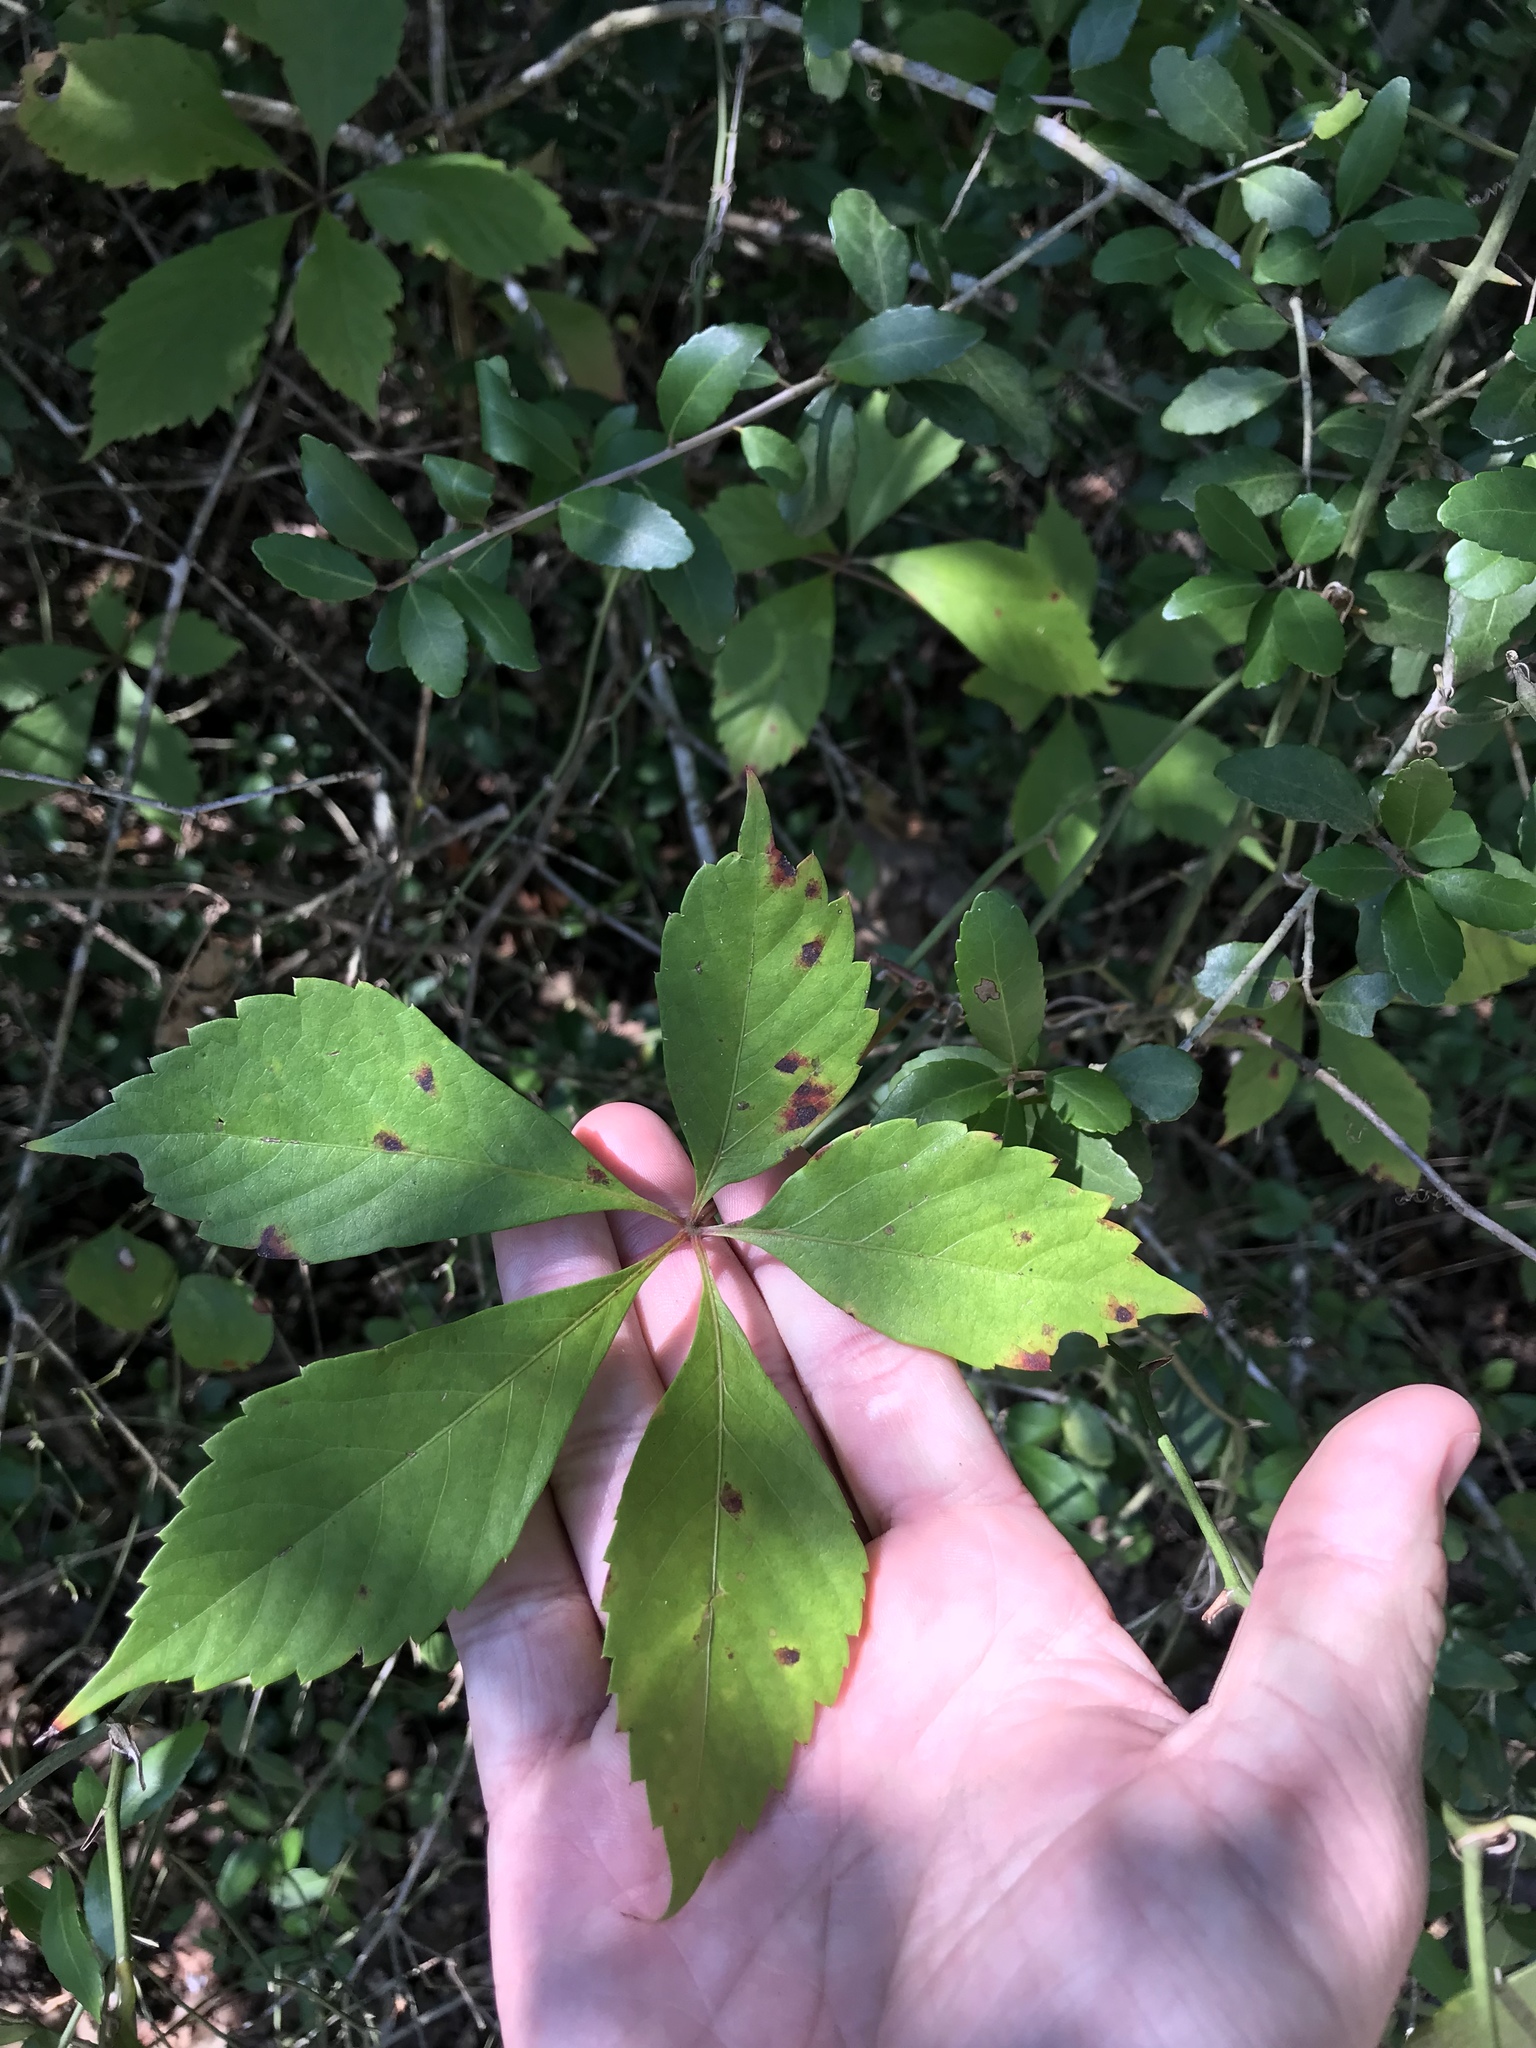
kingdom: Plantae
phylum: Tracheophyta
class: Magnoliopsida
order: Vitales
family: Vitaceae
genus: Parthenocissus
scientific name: Parthenocissus quinquefolia
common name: Virginia-creeper
